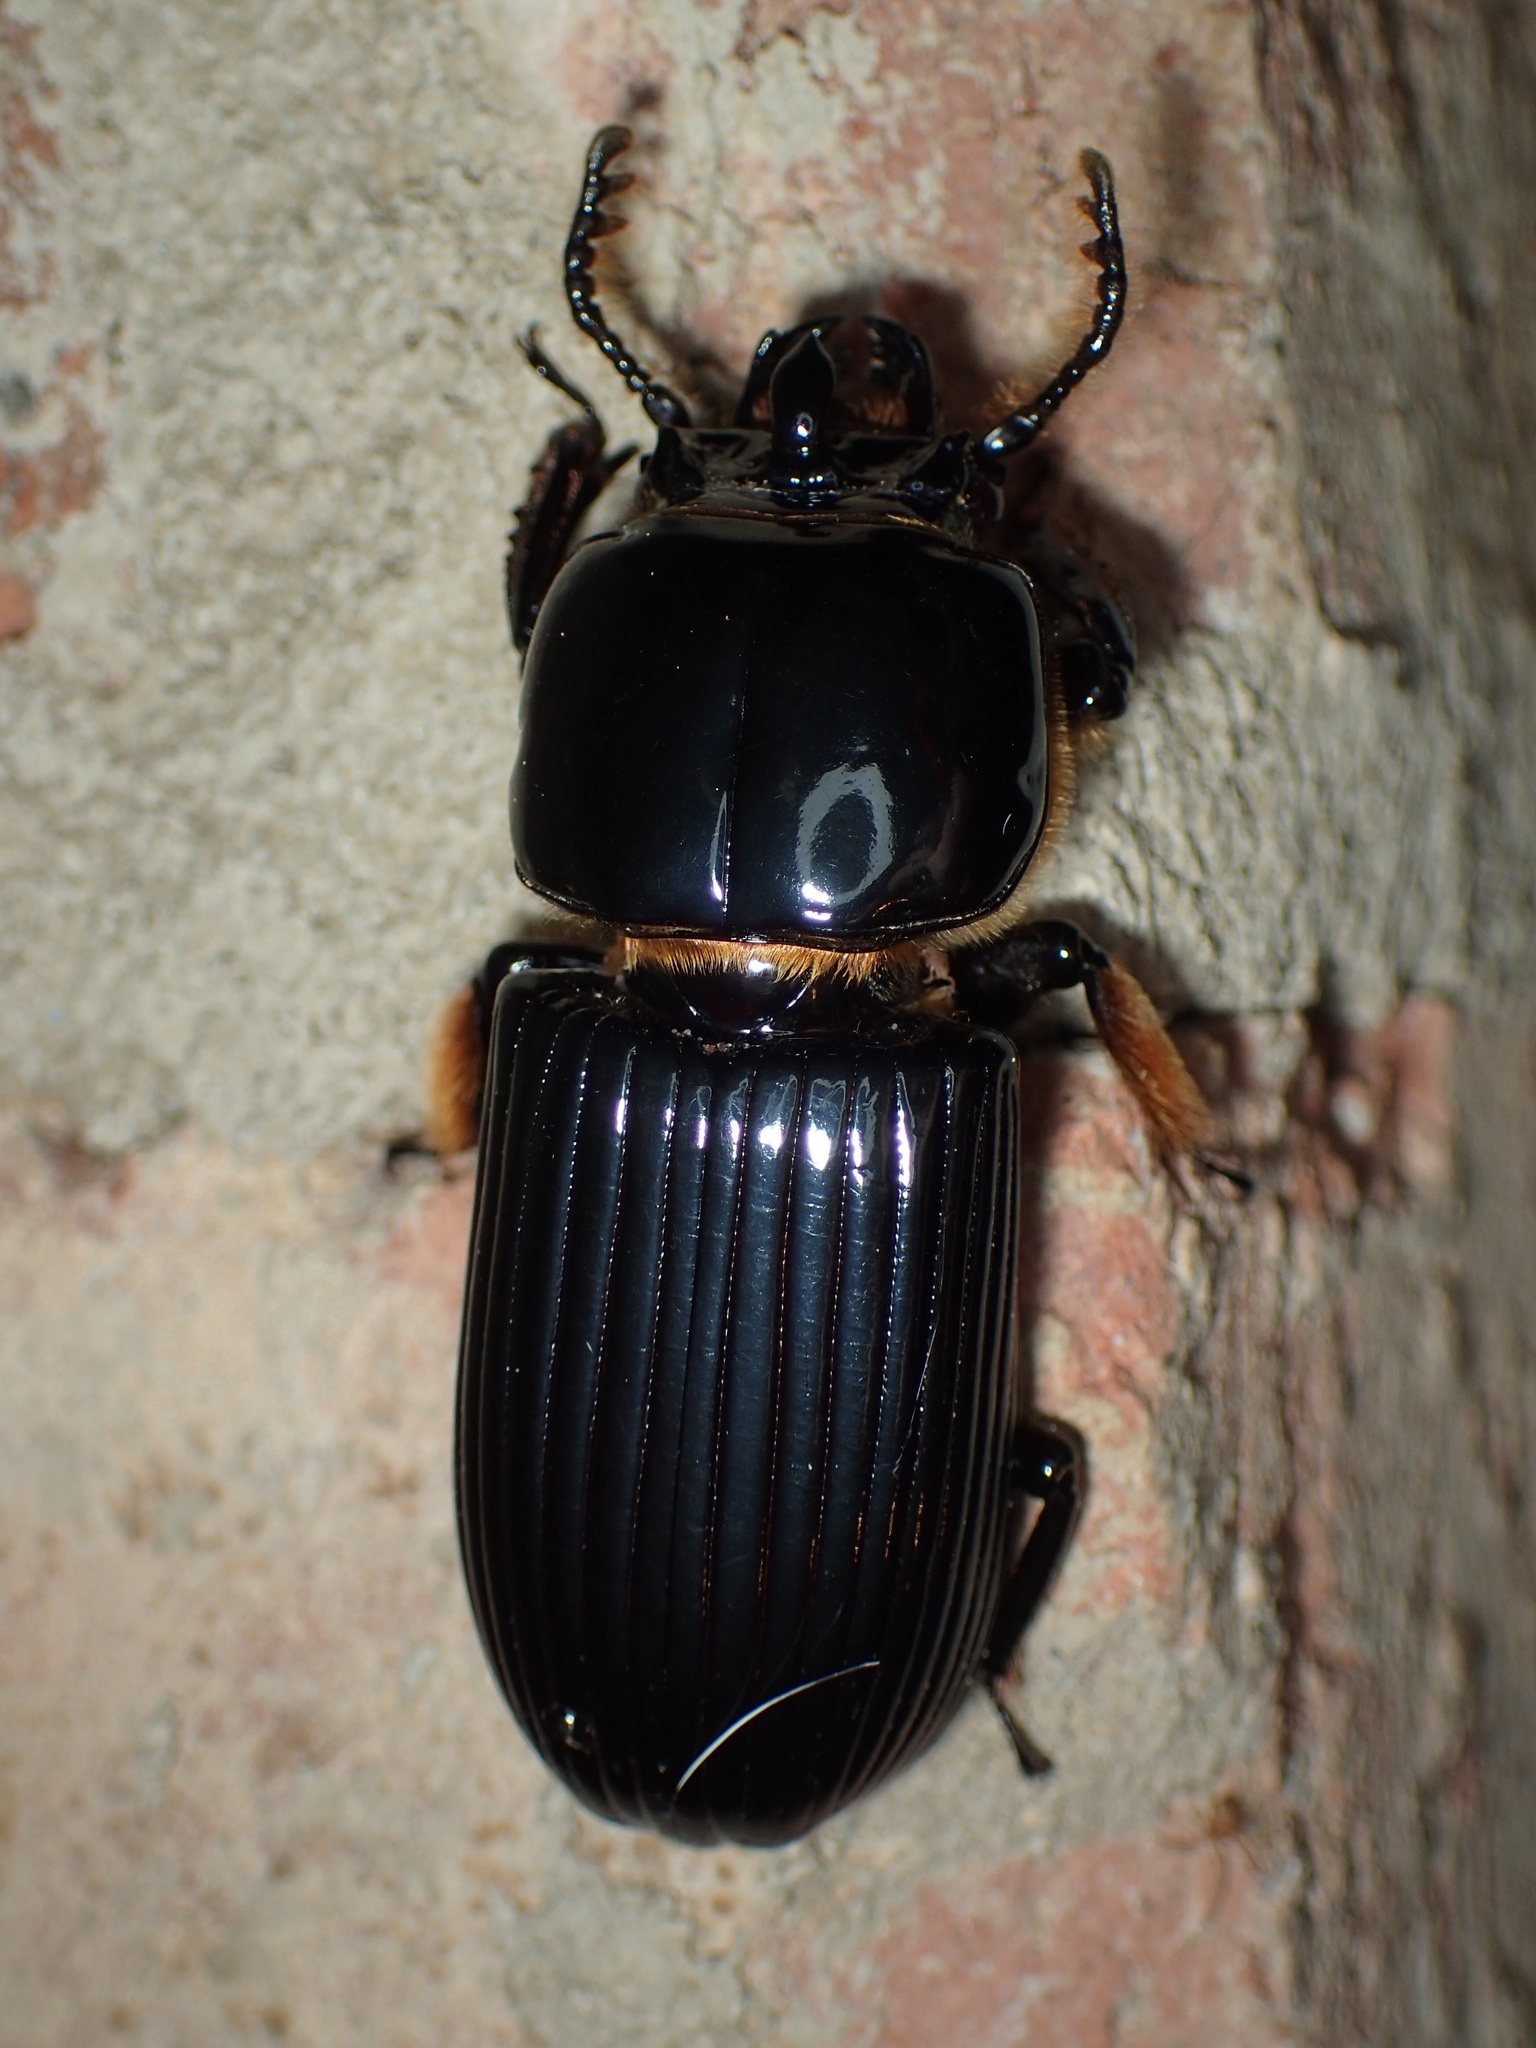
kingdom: Animalia
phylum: Arthropoda
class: Insecta
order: Coleoptera
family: Passalidae
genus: Odontotaenius
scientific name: Odontotaenius disjunctus
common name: Patent leather beetle
